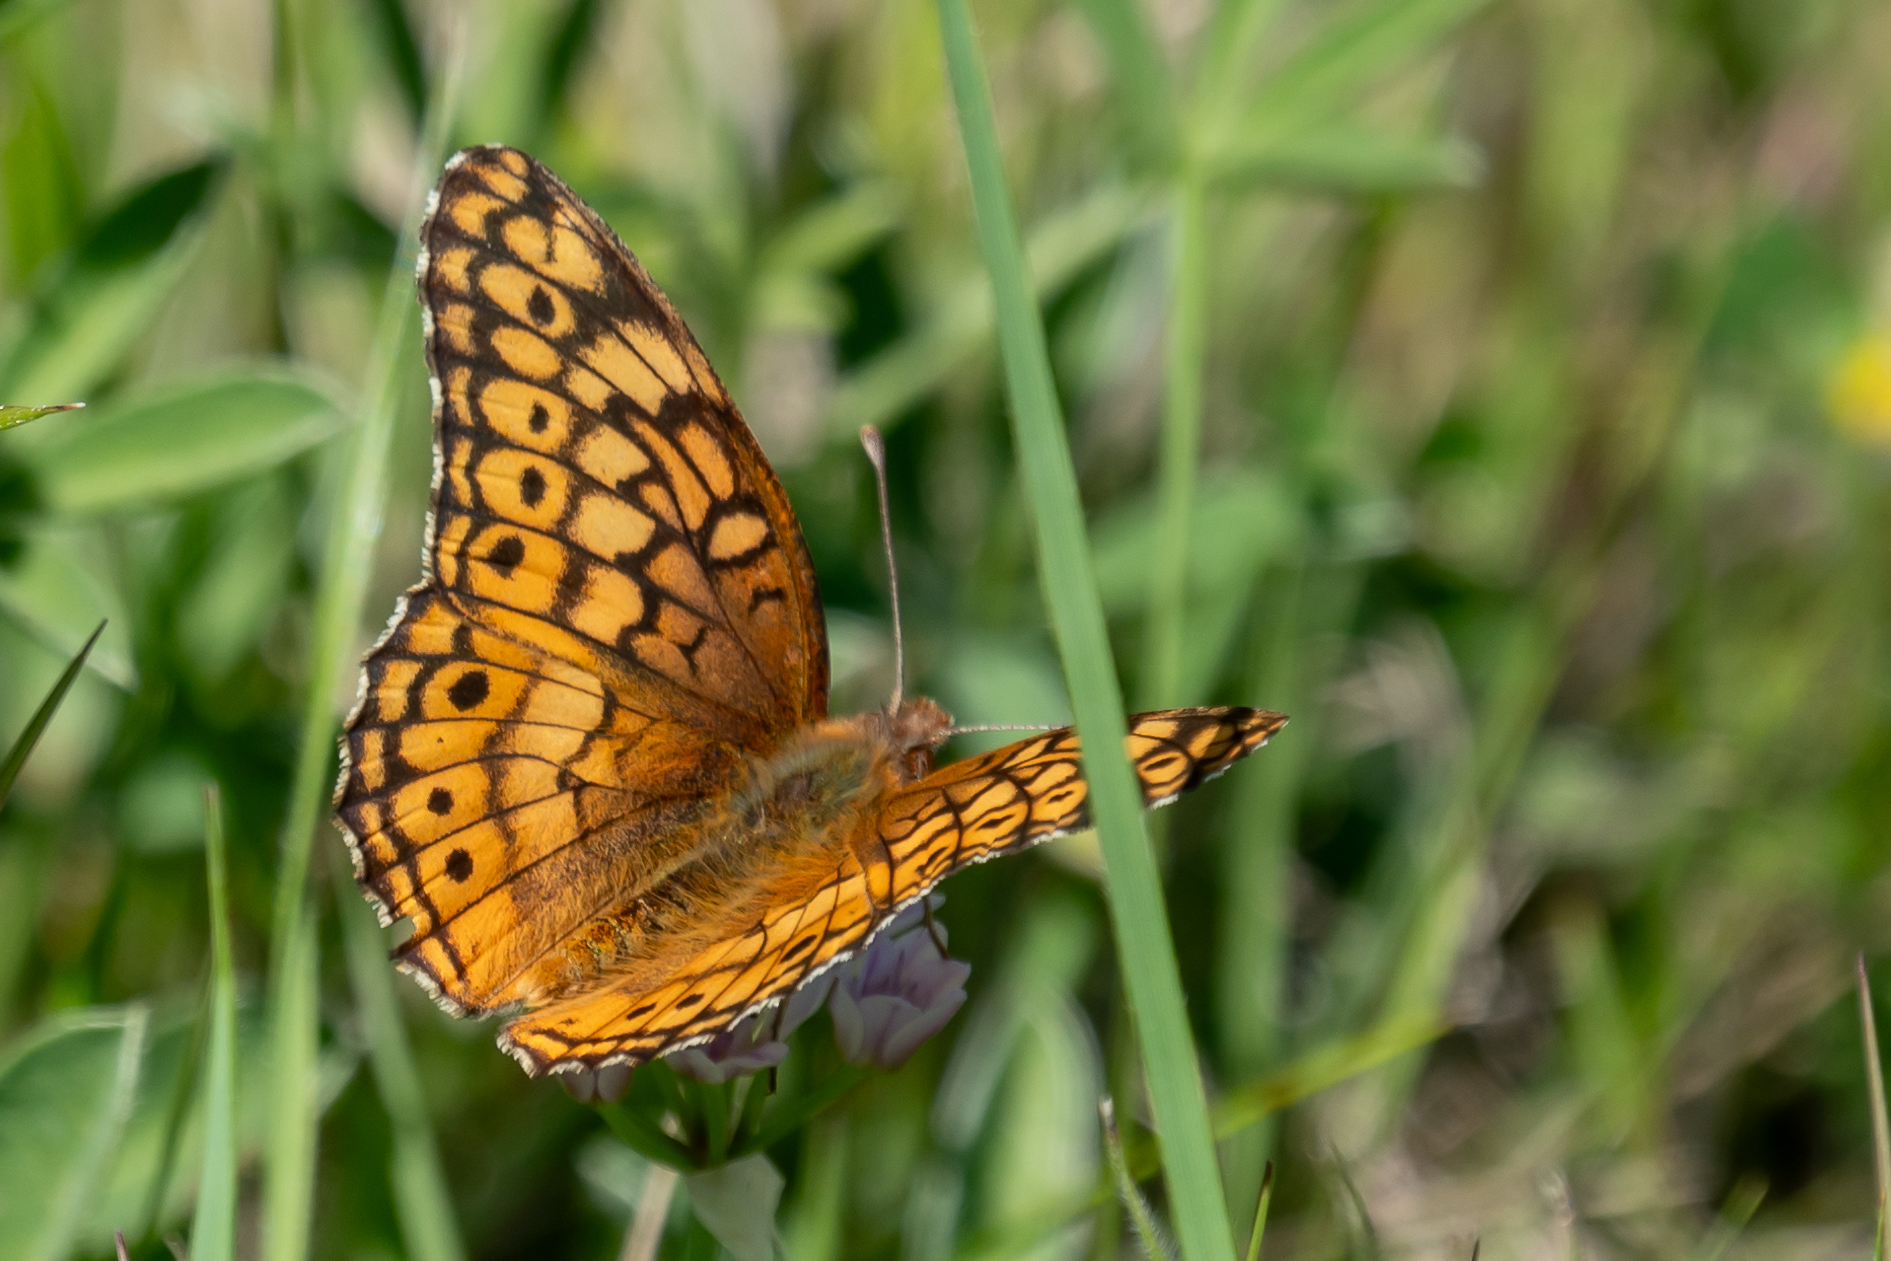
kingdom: Animalia
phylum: Arthropoda
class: Insecta
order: Lepidoptera
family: Nymphalidae
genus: Euptoieta
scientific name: Euptoieta claudia
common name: Variegated fritillary
